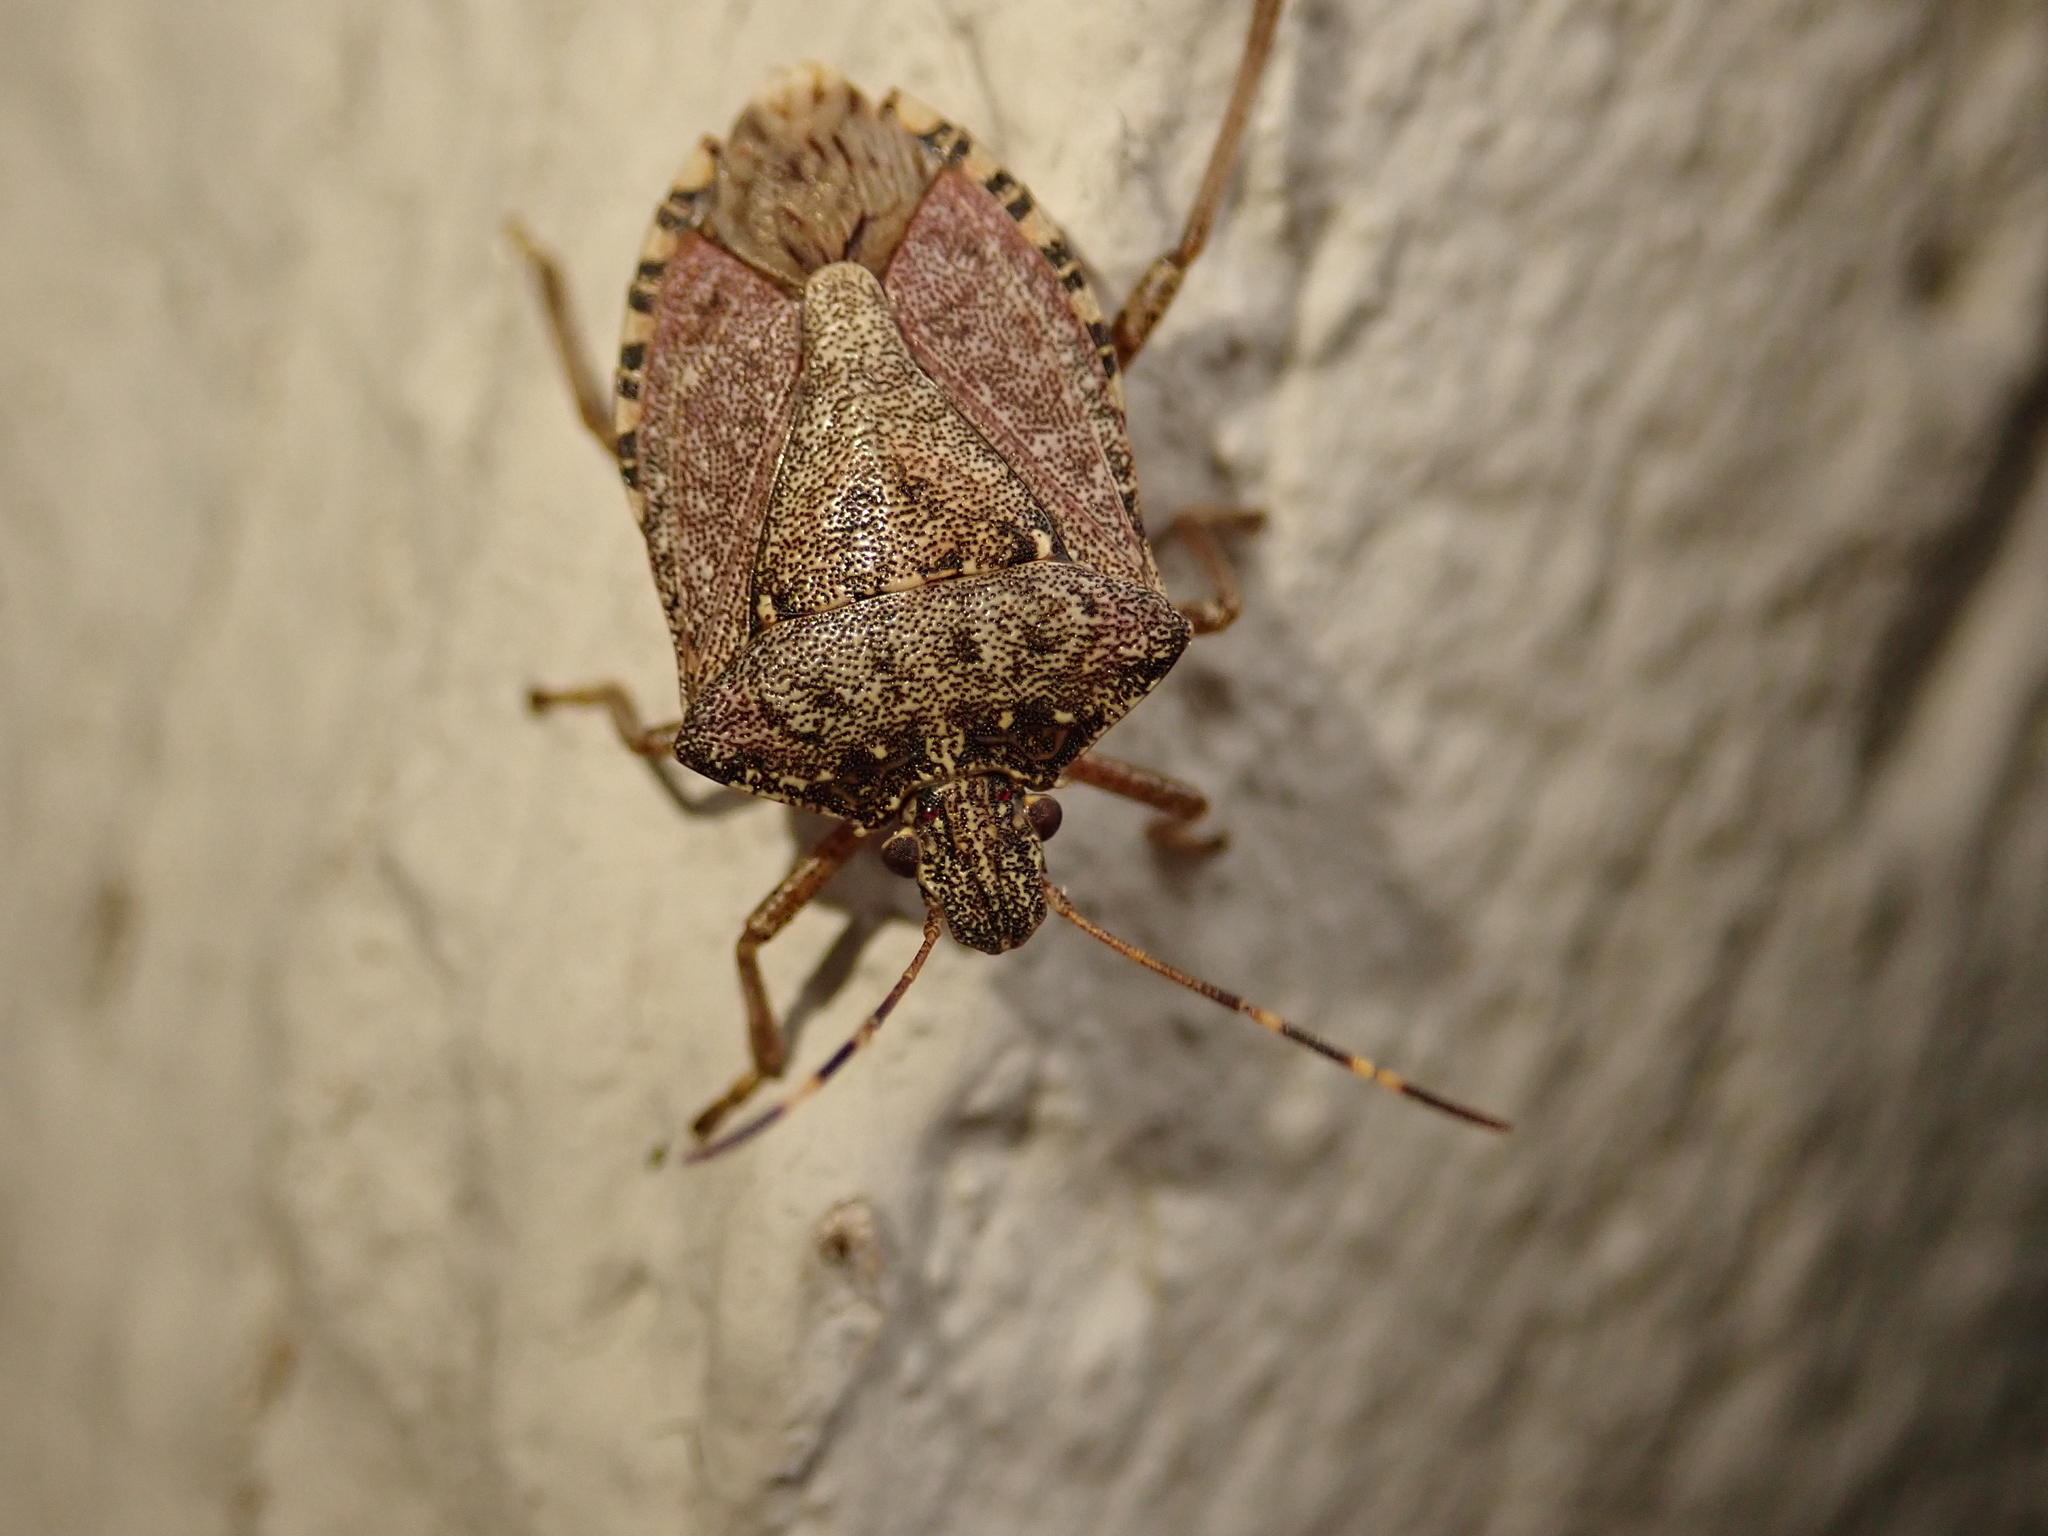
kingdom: Animalia
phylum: Arthropoda
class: Insecta
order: Hemiptera
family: Pentatomidae
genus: Halyomorpha
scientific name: Halyomorpha halys
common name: Brown marmorated stink bug
